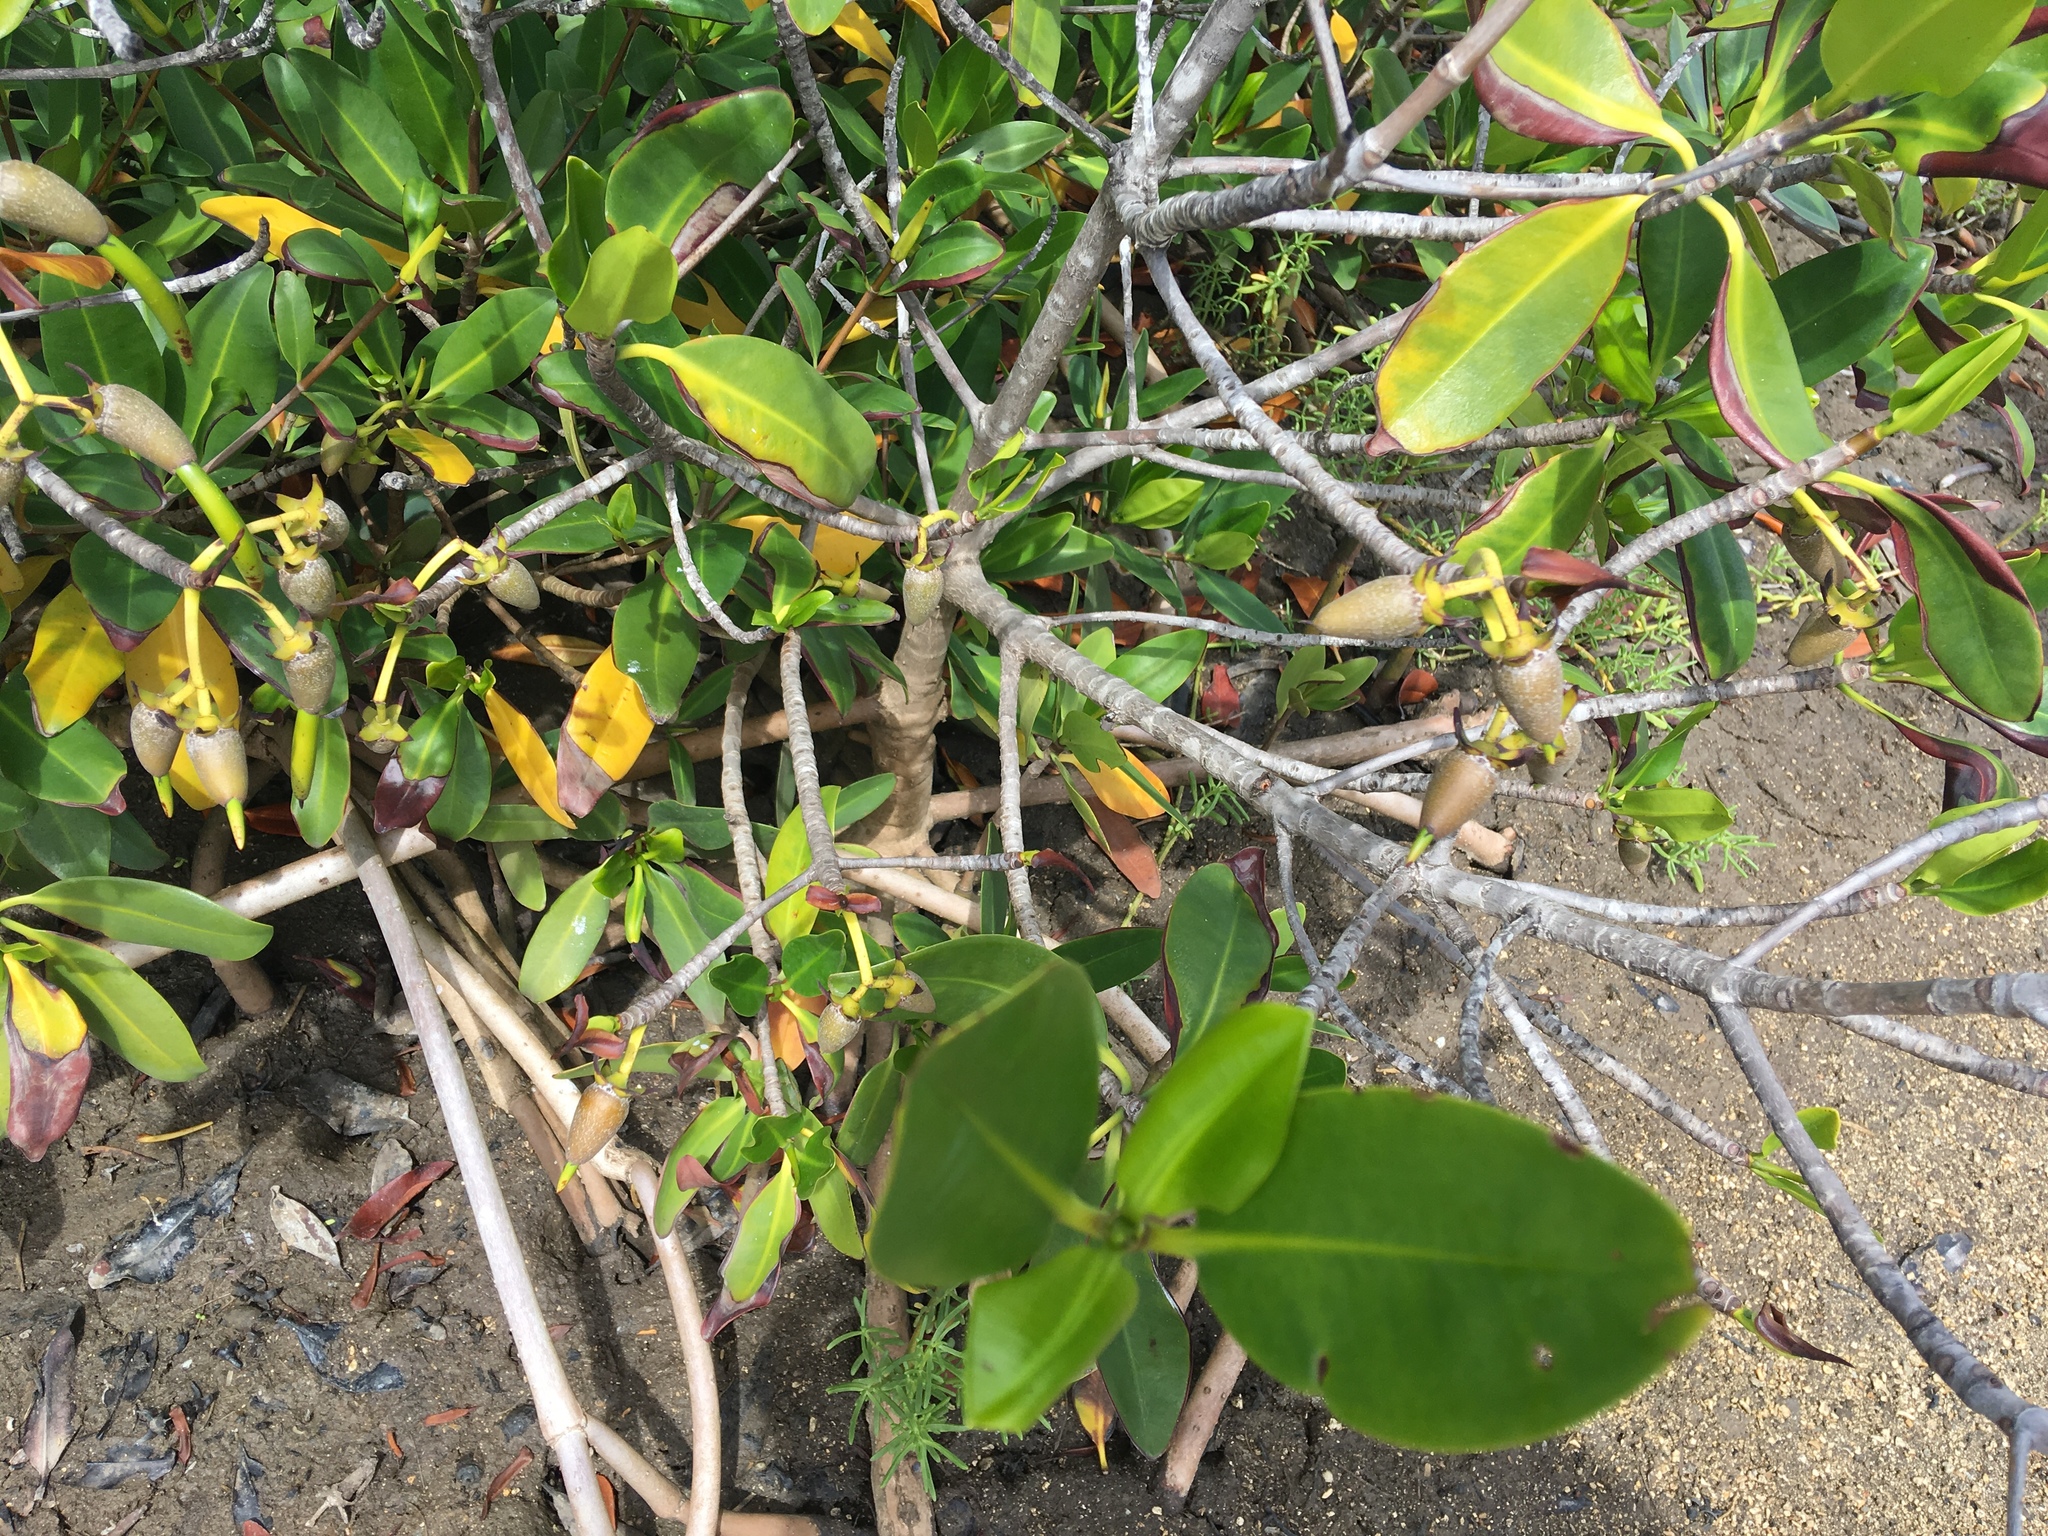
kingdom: Plantae
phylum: Tracheophyta
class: Magnoliopsida
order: Malpighiales
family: Rhizophoraceae
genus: Rhizophora
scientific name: Rhizophora mangle
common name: Red mangrove
